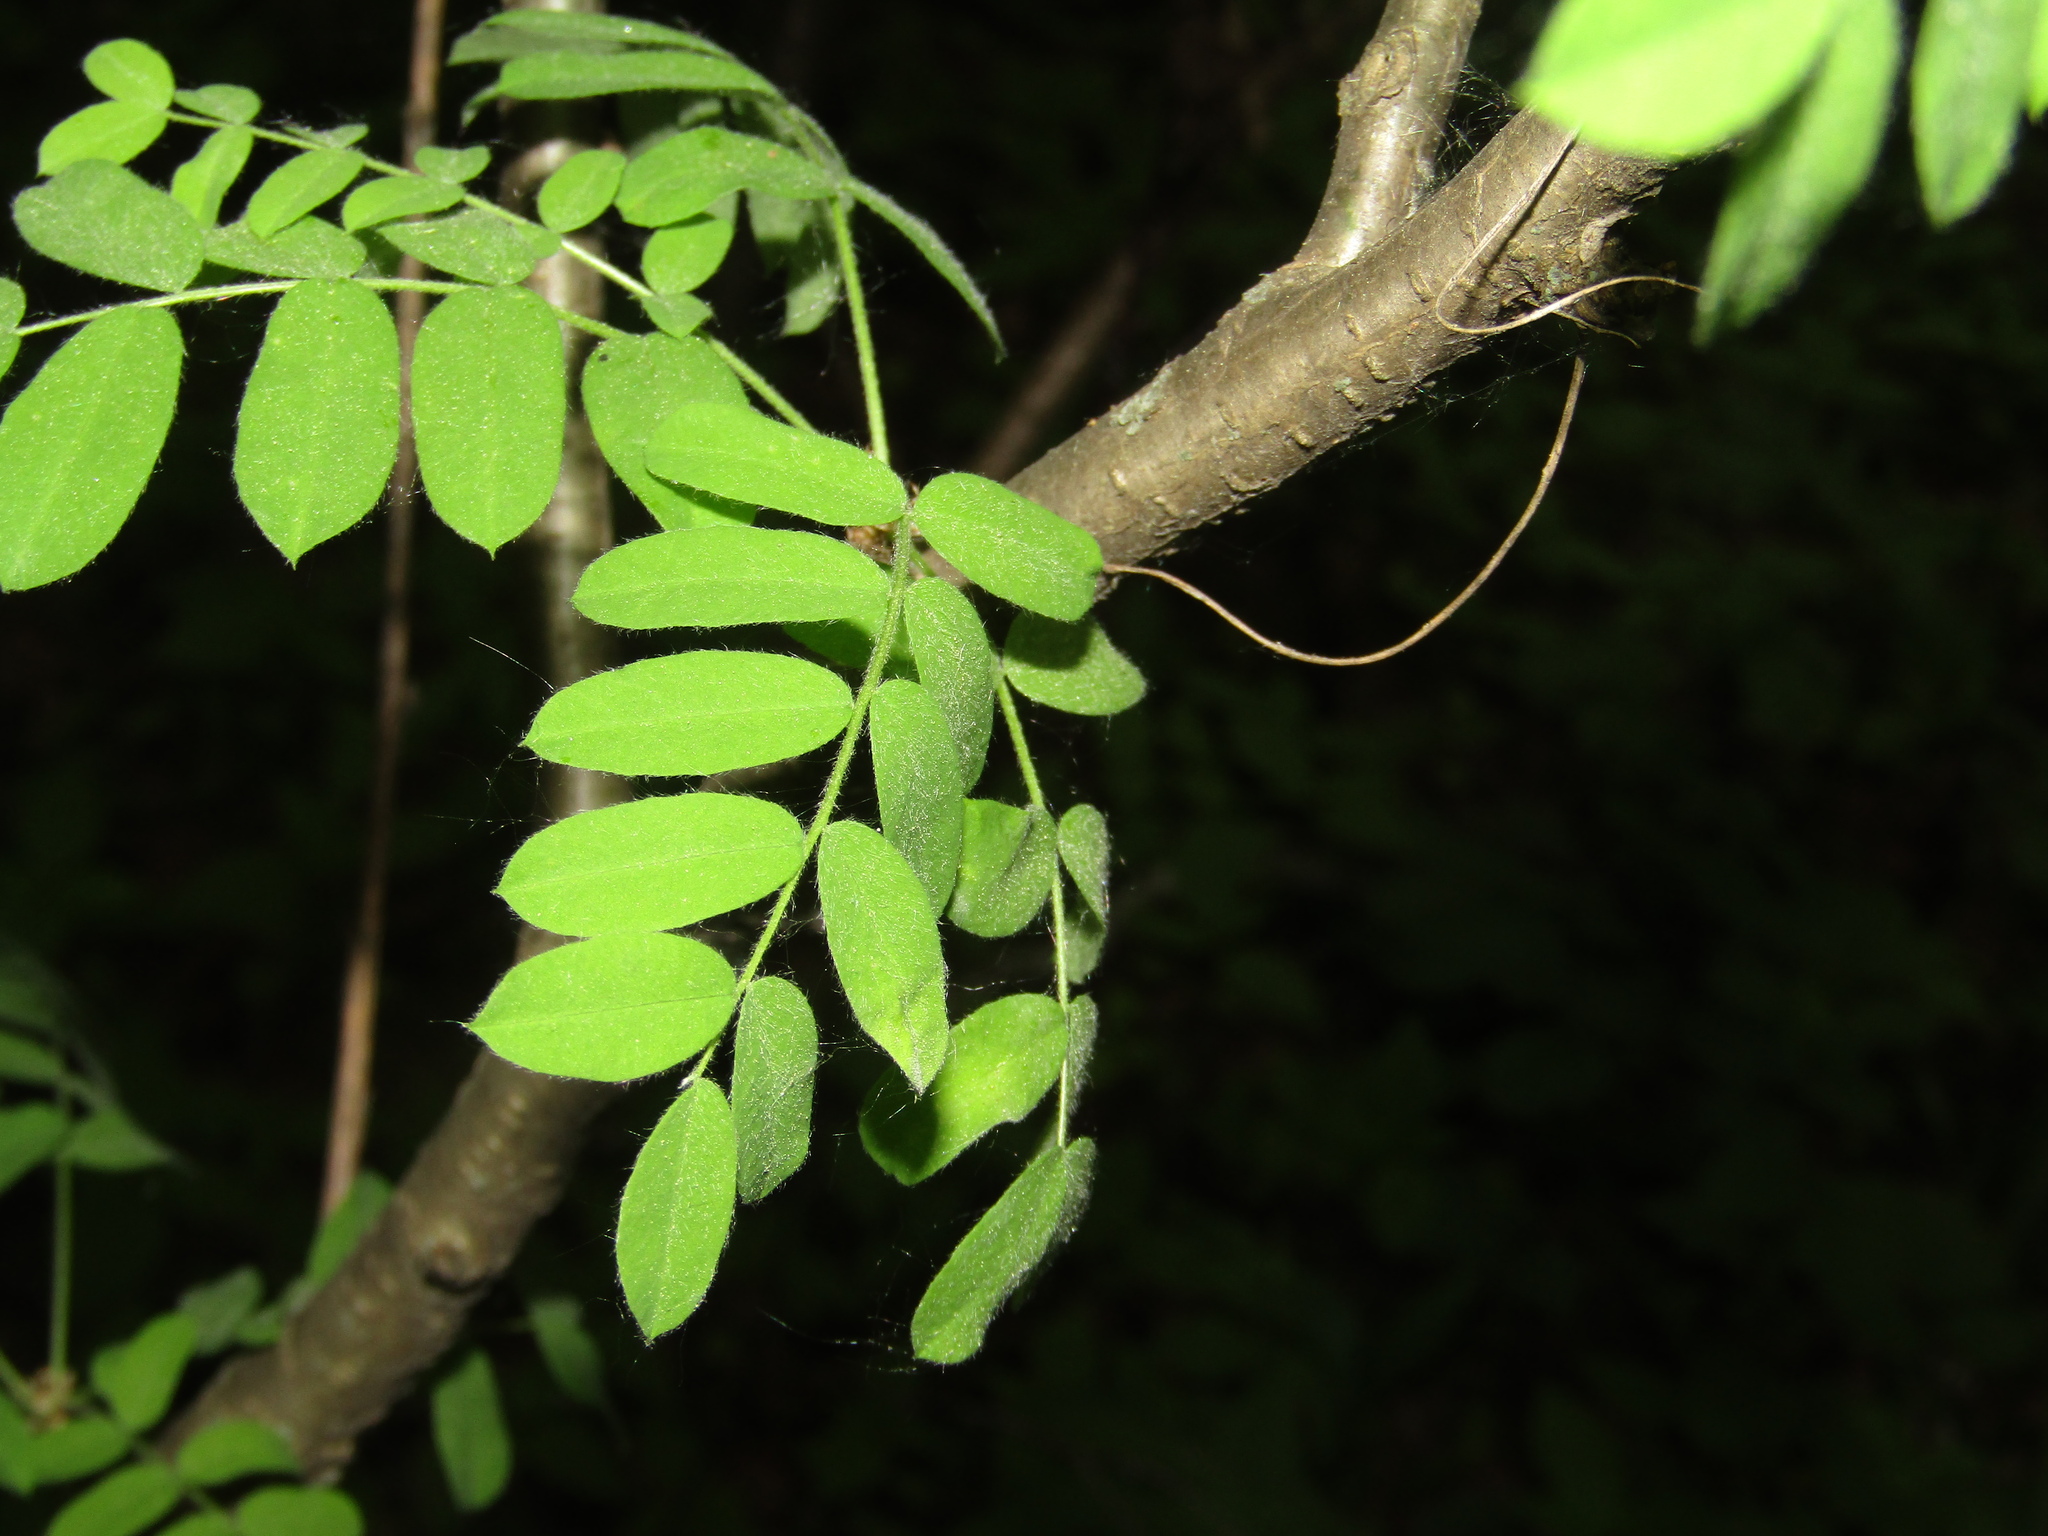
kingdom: Plantae
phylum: Tracheophyta
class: Magnoliopsida
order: Fabales
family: Fabaceae
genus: Caragana
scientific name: Caragana arborescens
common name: Siberian peashrub
